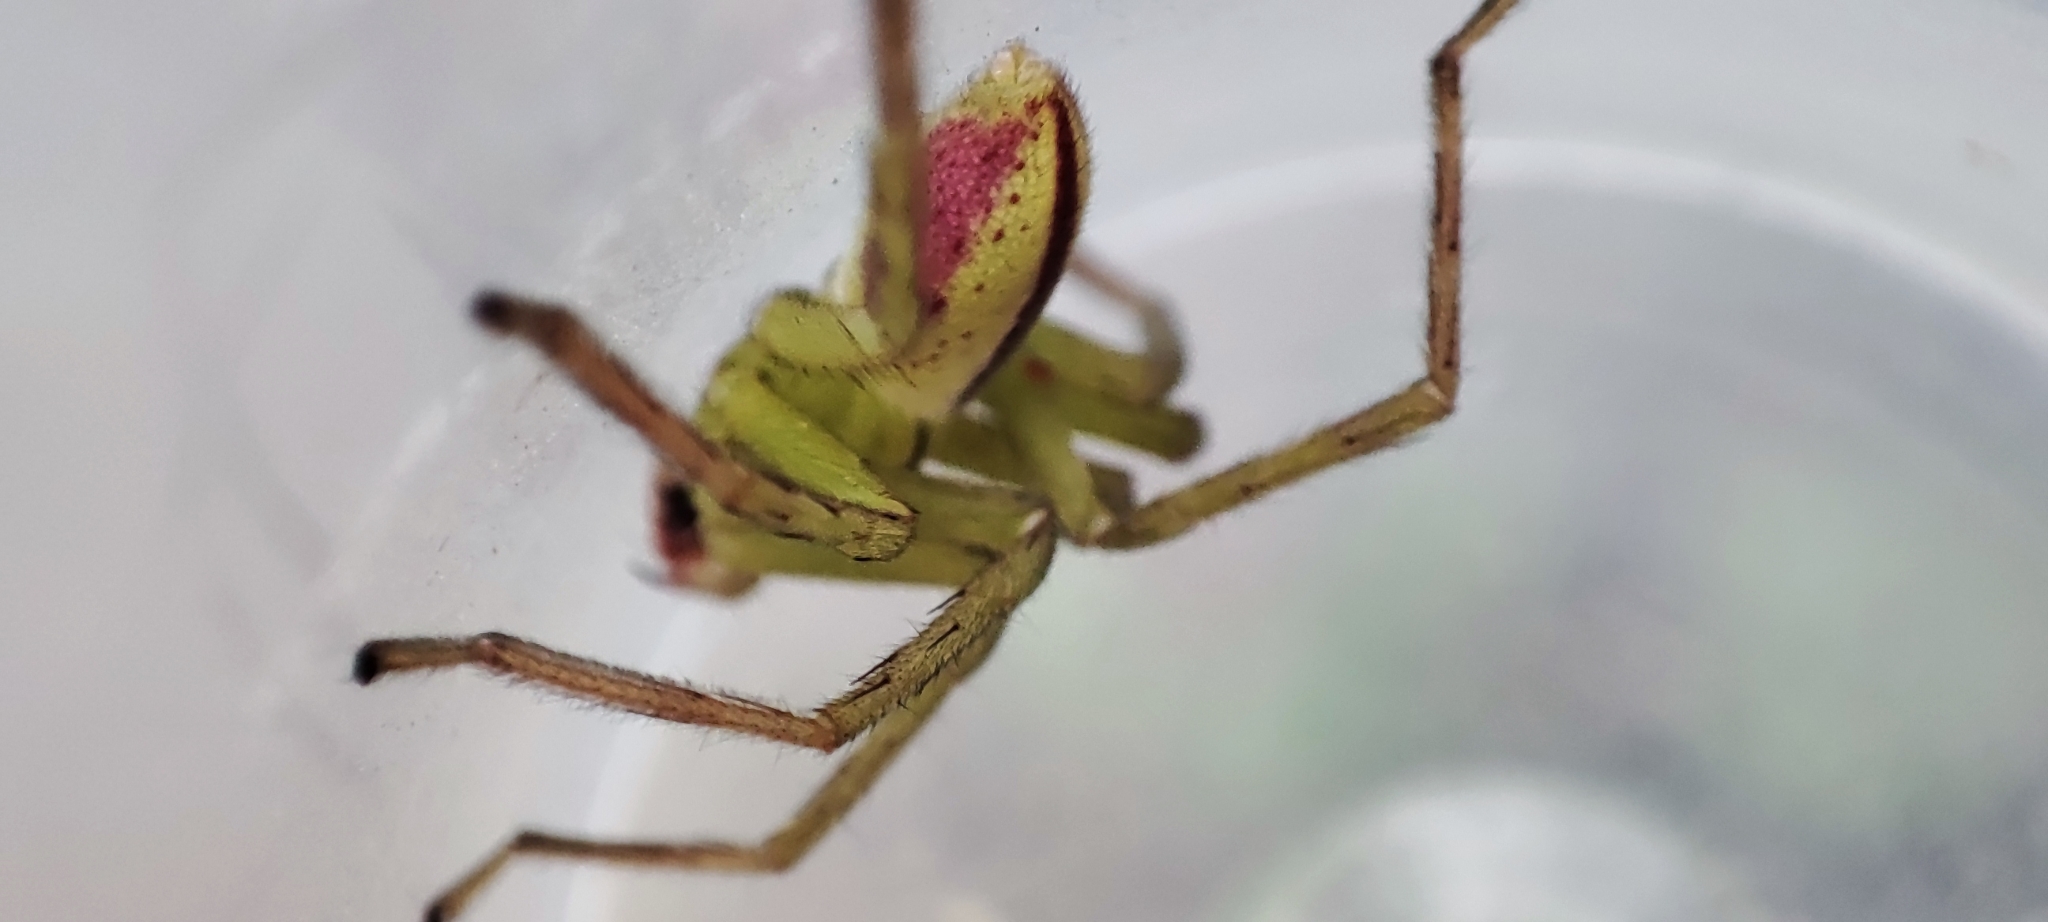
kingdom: Animalia
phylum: Arthropoda
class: Arachnida
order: Araneae
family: Sparassidae
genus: Micrommata
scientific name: Micrommata virescens
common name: Green spider
